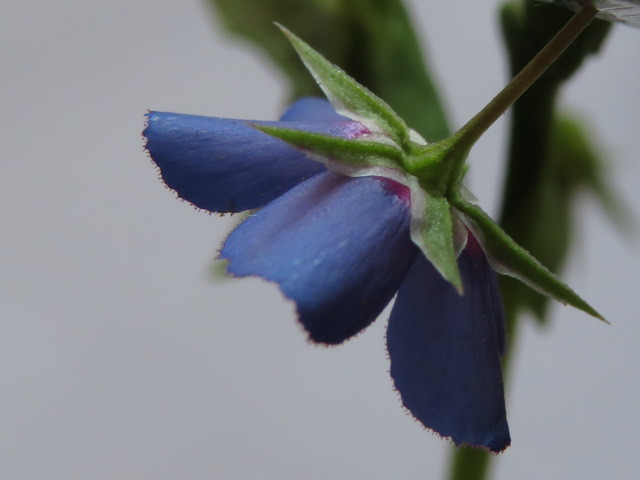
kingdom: Plantae
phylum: Tracheophyta
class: Magnoliopsida
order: Ericales
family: Primulaceae
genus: Lysimachia
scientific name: Lysimachia loeflingii
